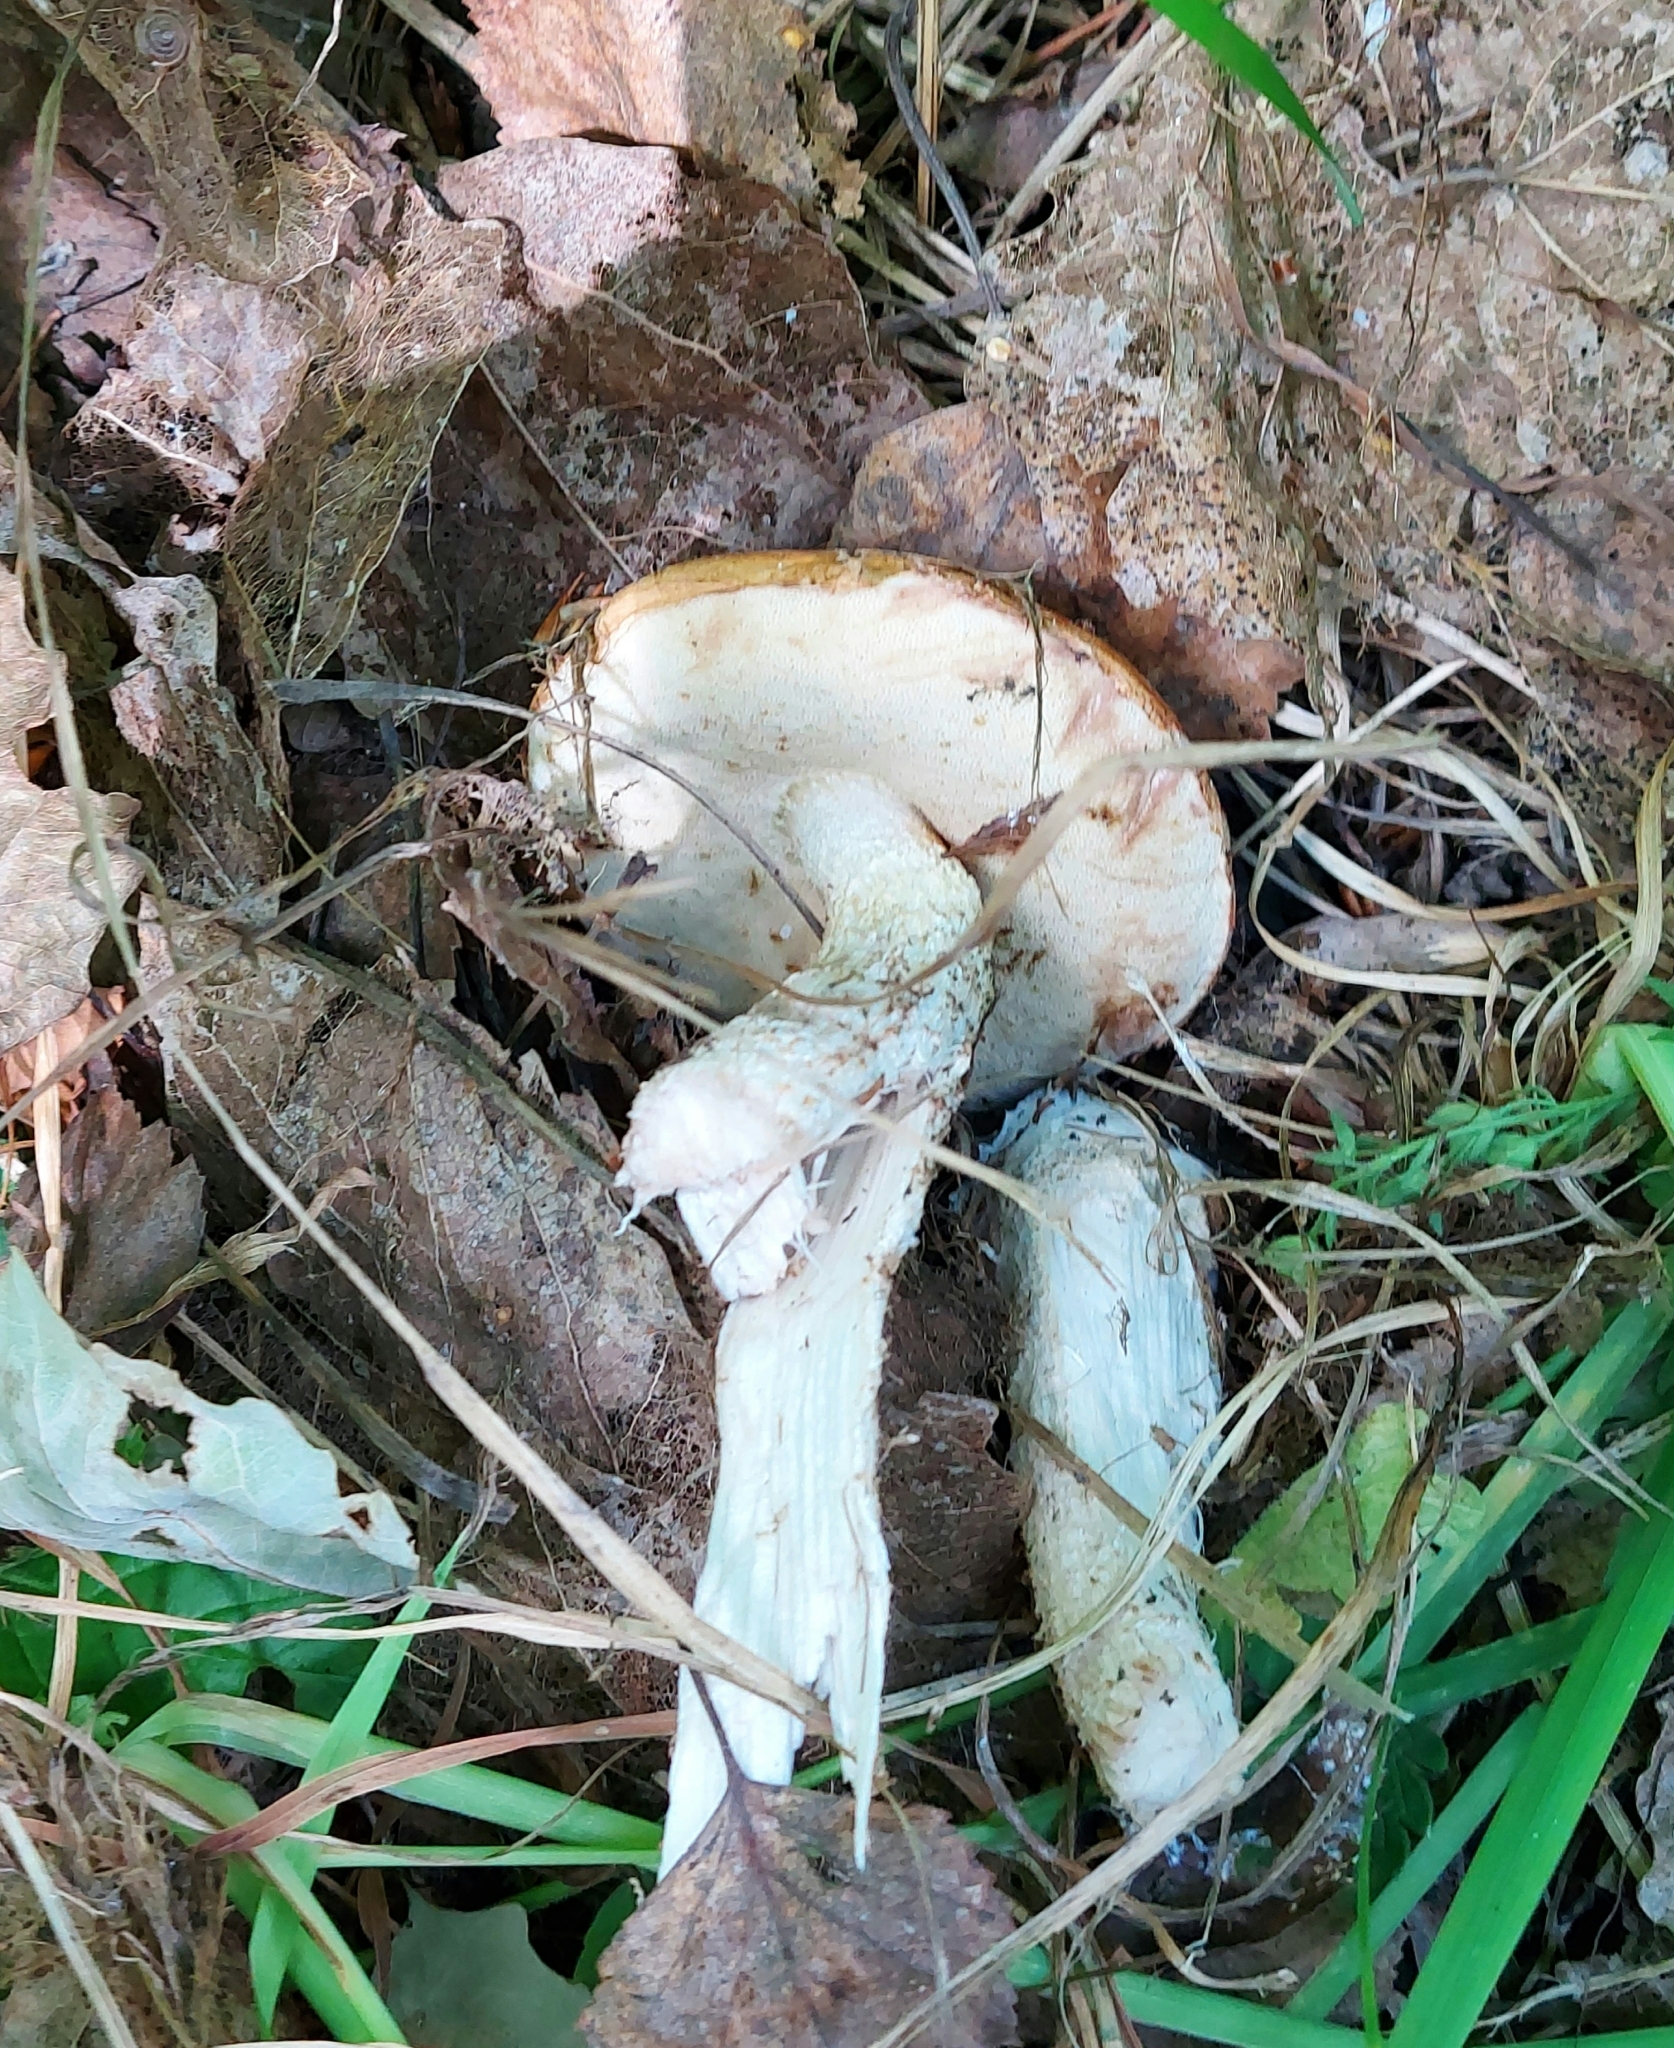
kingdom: Fungi
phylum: Basidiomycota
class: Agaricomycetes
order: Boletales
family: Boletaceae
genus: Leccinum
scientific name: Leccinum aurantiacum
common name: Orange bolete
